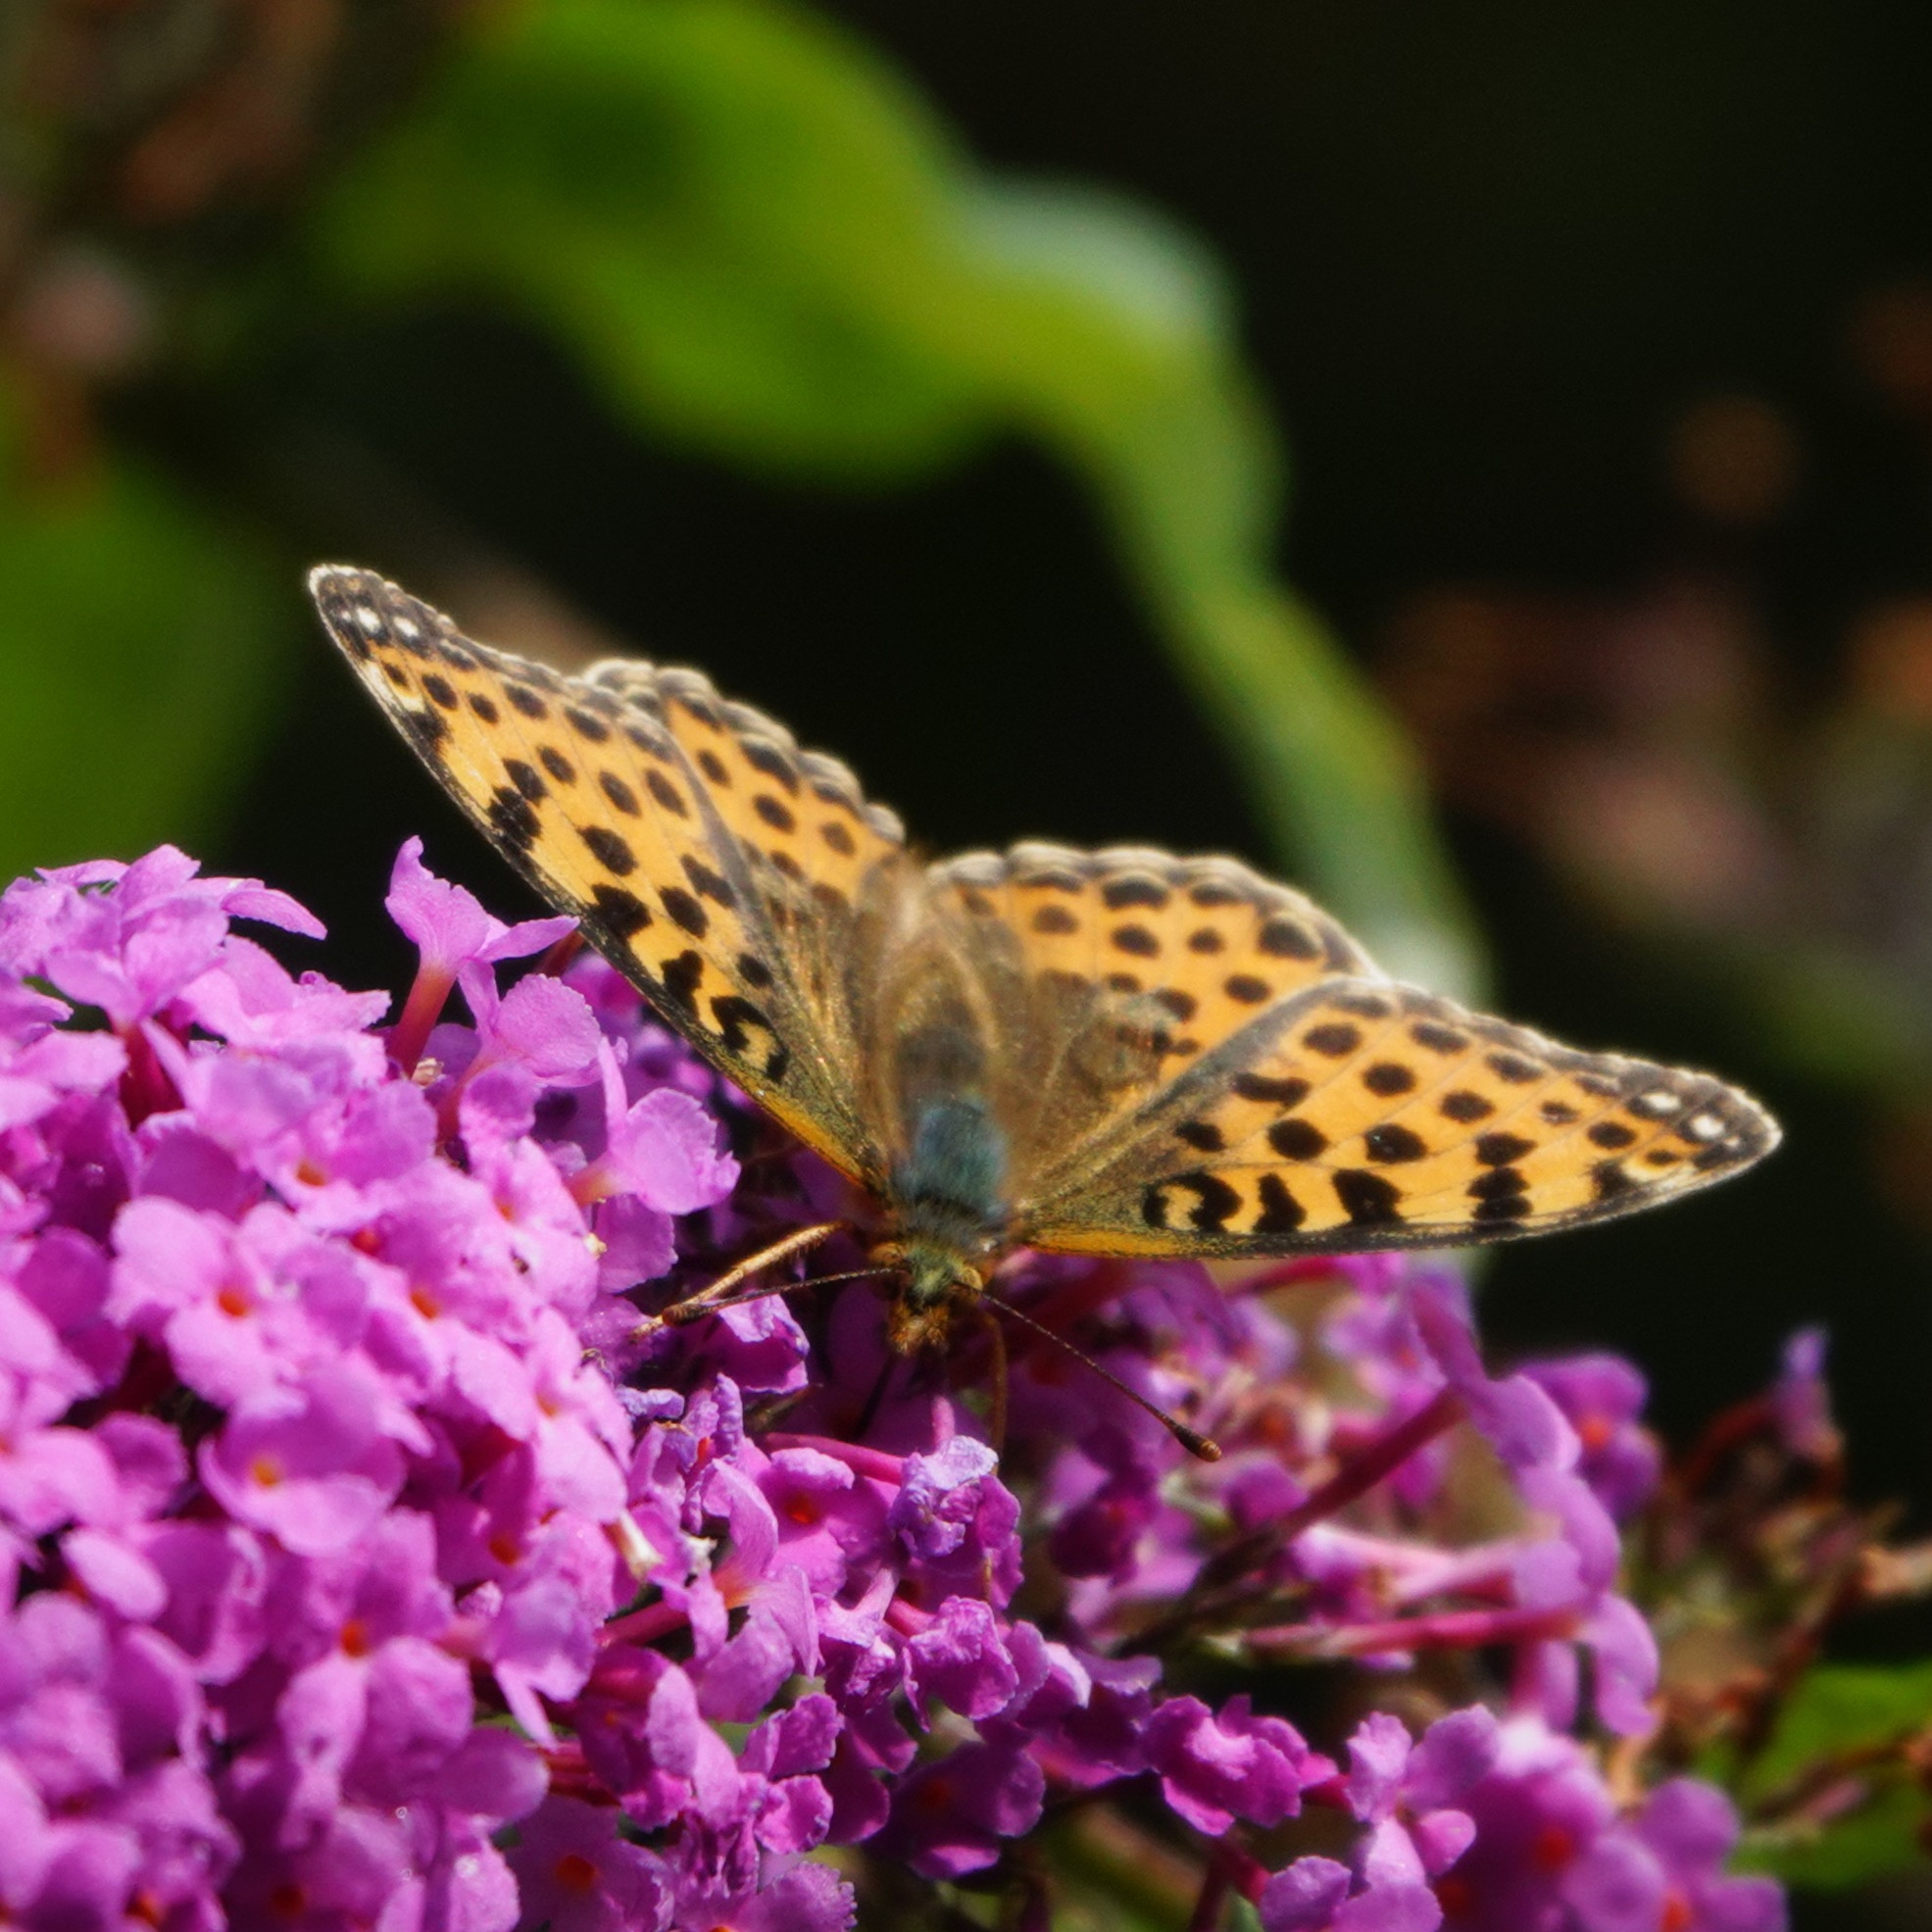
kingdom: Animalia
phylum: Arthropoda
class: Insecta
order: Lepidoptera
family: Nymphalidae
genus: Issoria
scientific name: Issoria lathonia
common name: Queen of spain fritillary
